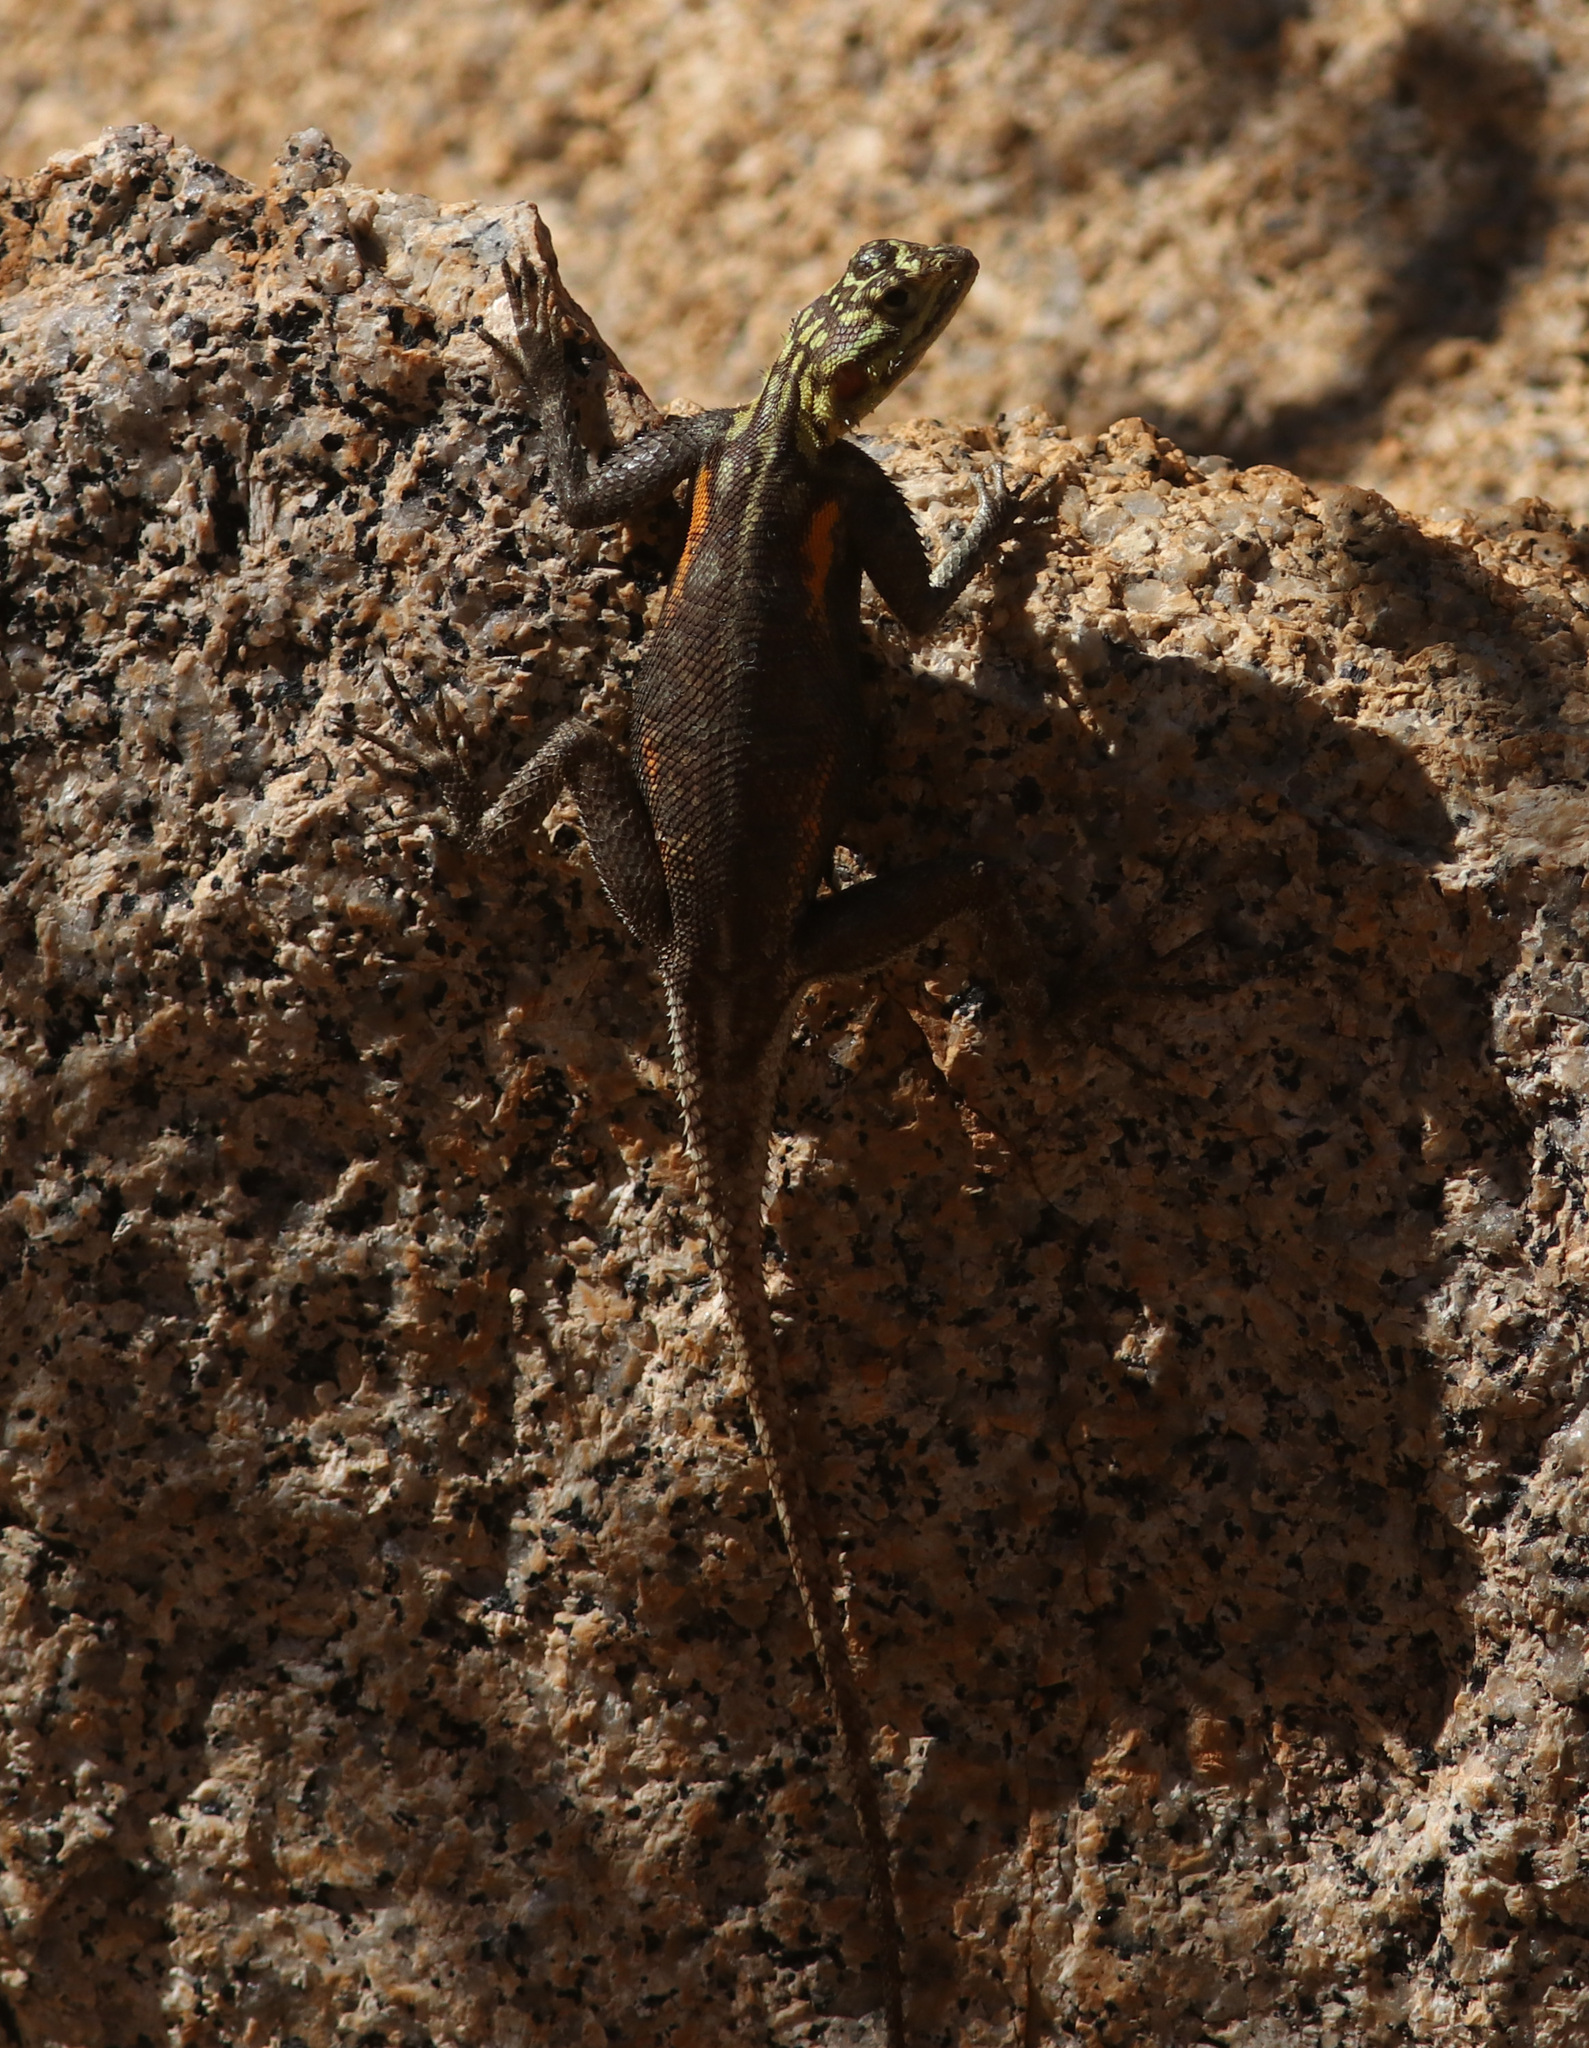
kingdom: Animalia
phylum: Chordata
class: Squamata
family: Agamidae
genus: Agama
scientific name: Agama planiceps
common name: Namib rock agama
